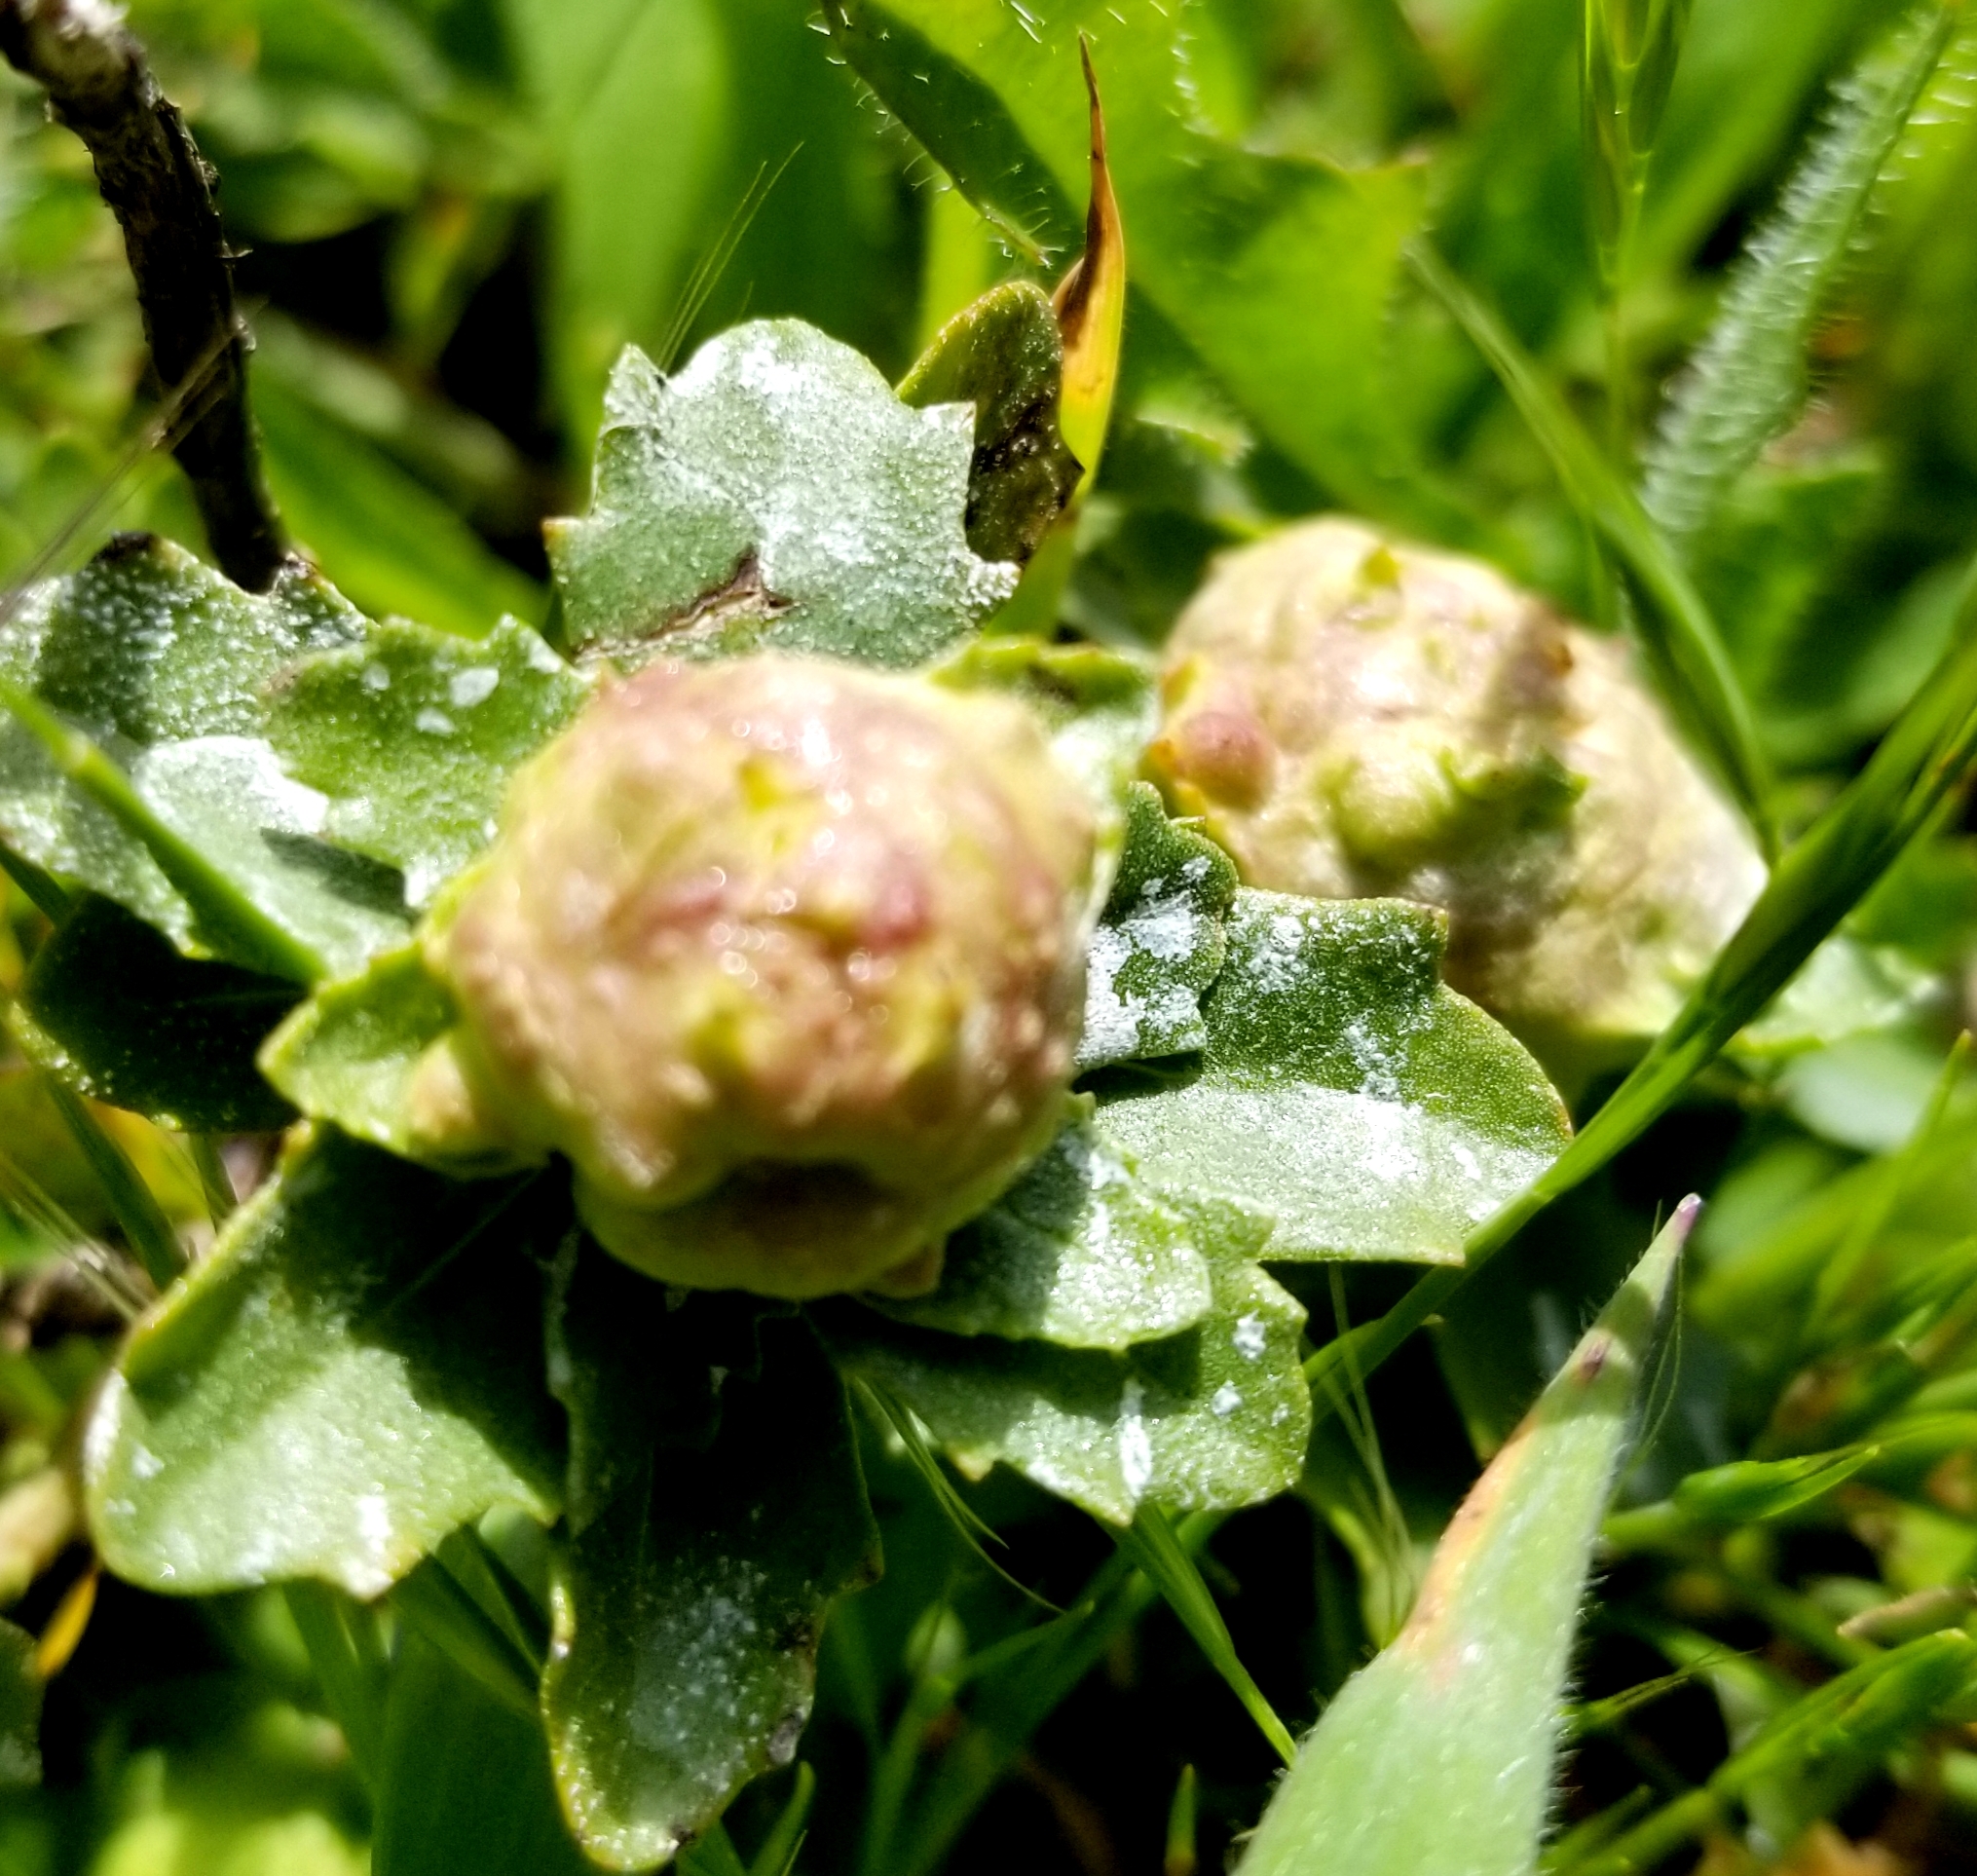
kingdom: Animalia
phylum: Arthropoda
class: Insecta
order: Diptera
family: Cecidomyiidae
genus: Rhopalomyia
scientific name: Rhopalomyia californica
